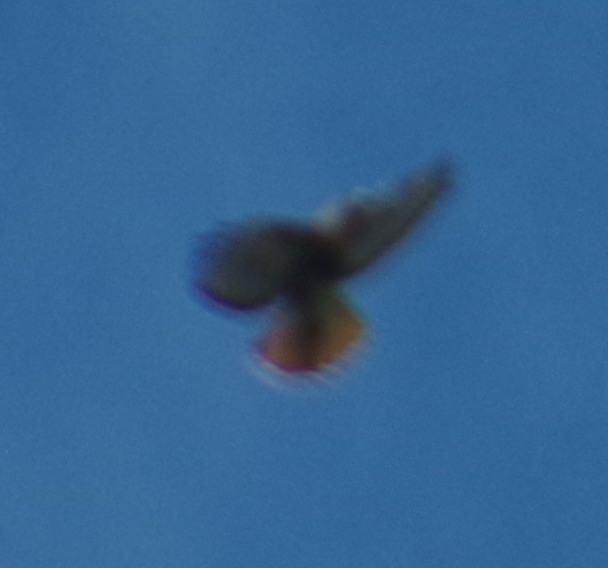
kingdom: Animalia
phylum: Chordata
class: Aves
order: Accipitriformes
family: Accipitridae
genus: Buteo
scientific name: Buteo jamaicensis
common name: Red-tailed hawk
